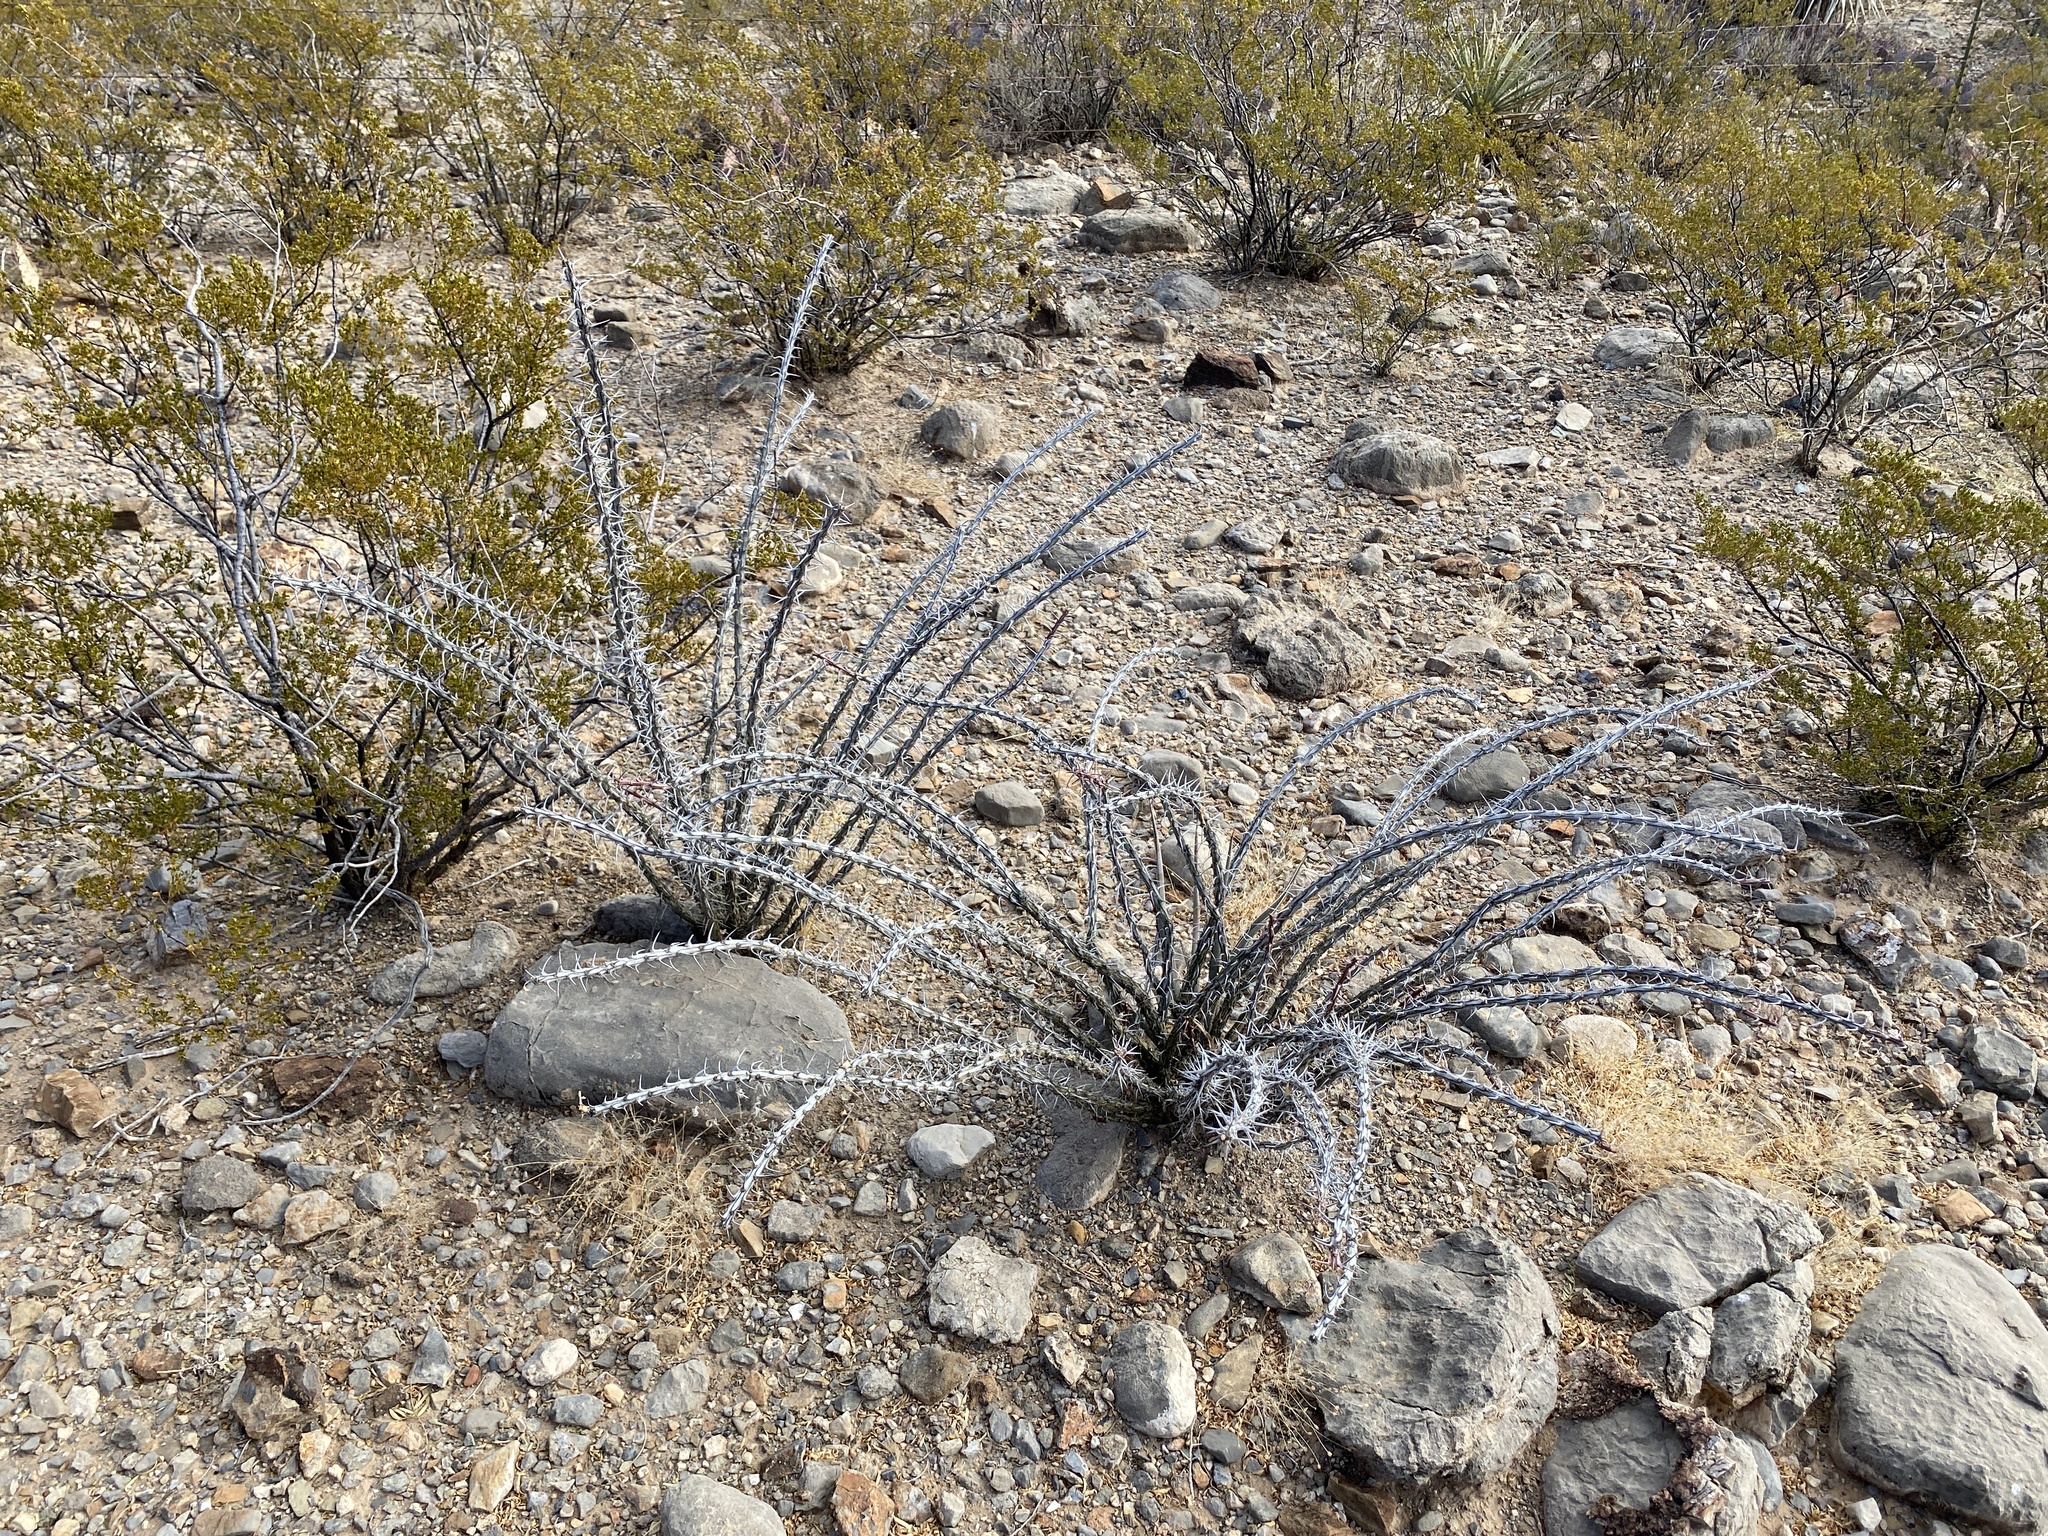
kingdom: Plantae
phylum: Tracheophyta
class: Magnoliopsida
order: Ericales
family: Fouquieriaceae
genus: Fouquieria
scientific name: Fouquieria splendens
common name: Vine-cactus
